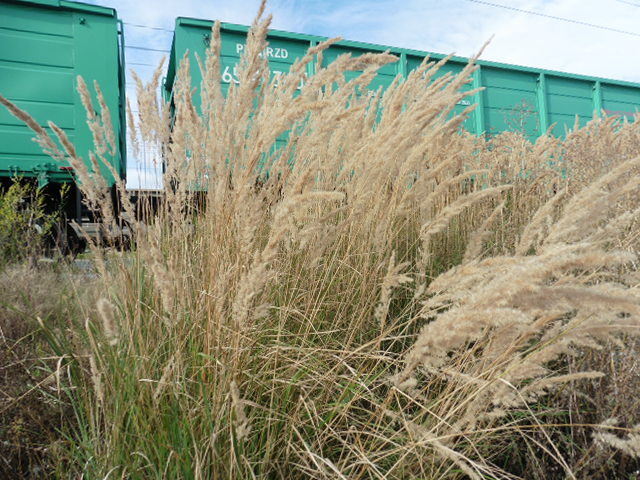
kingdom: Plantae
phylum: Tracheophyta
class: Liliopsida
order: Poales
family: Poaceae
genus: Calamagrostis
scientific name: Calamagrostis epigejos
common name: Wood small-reed
